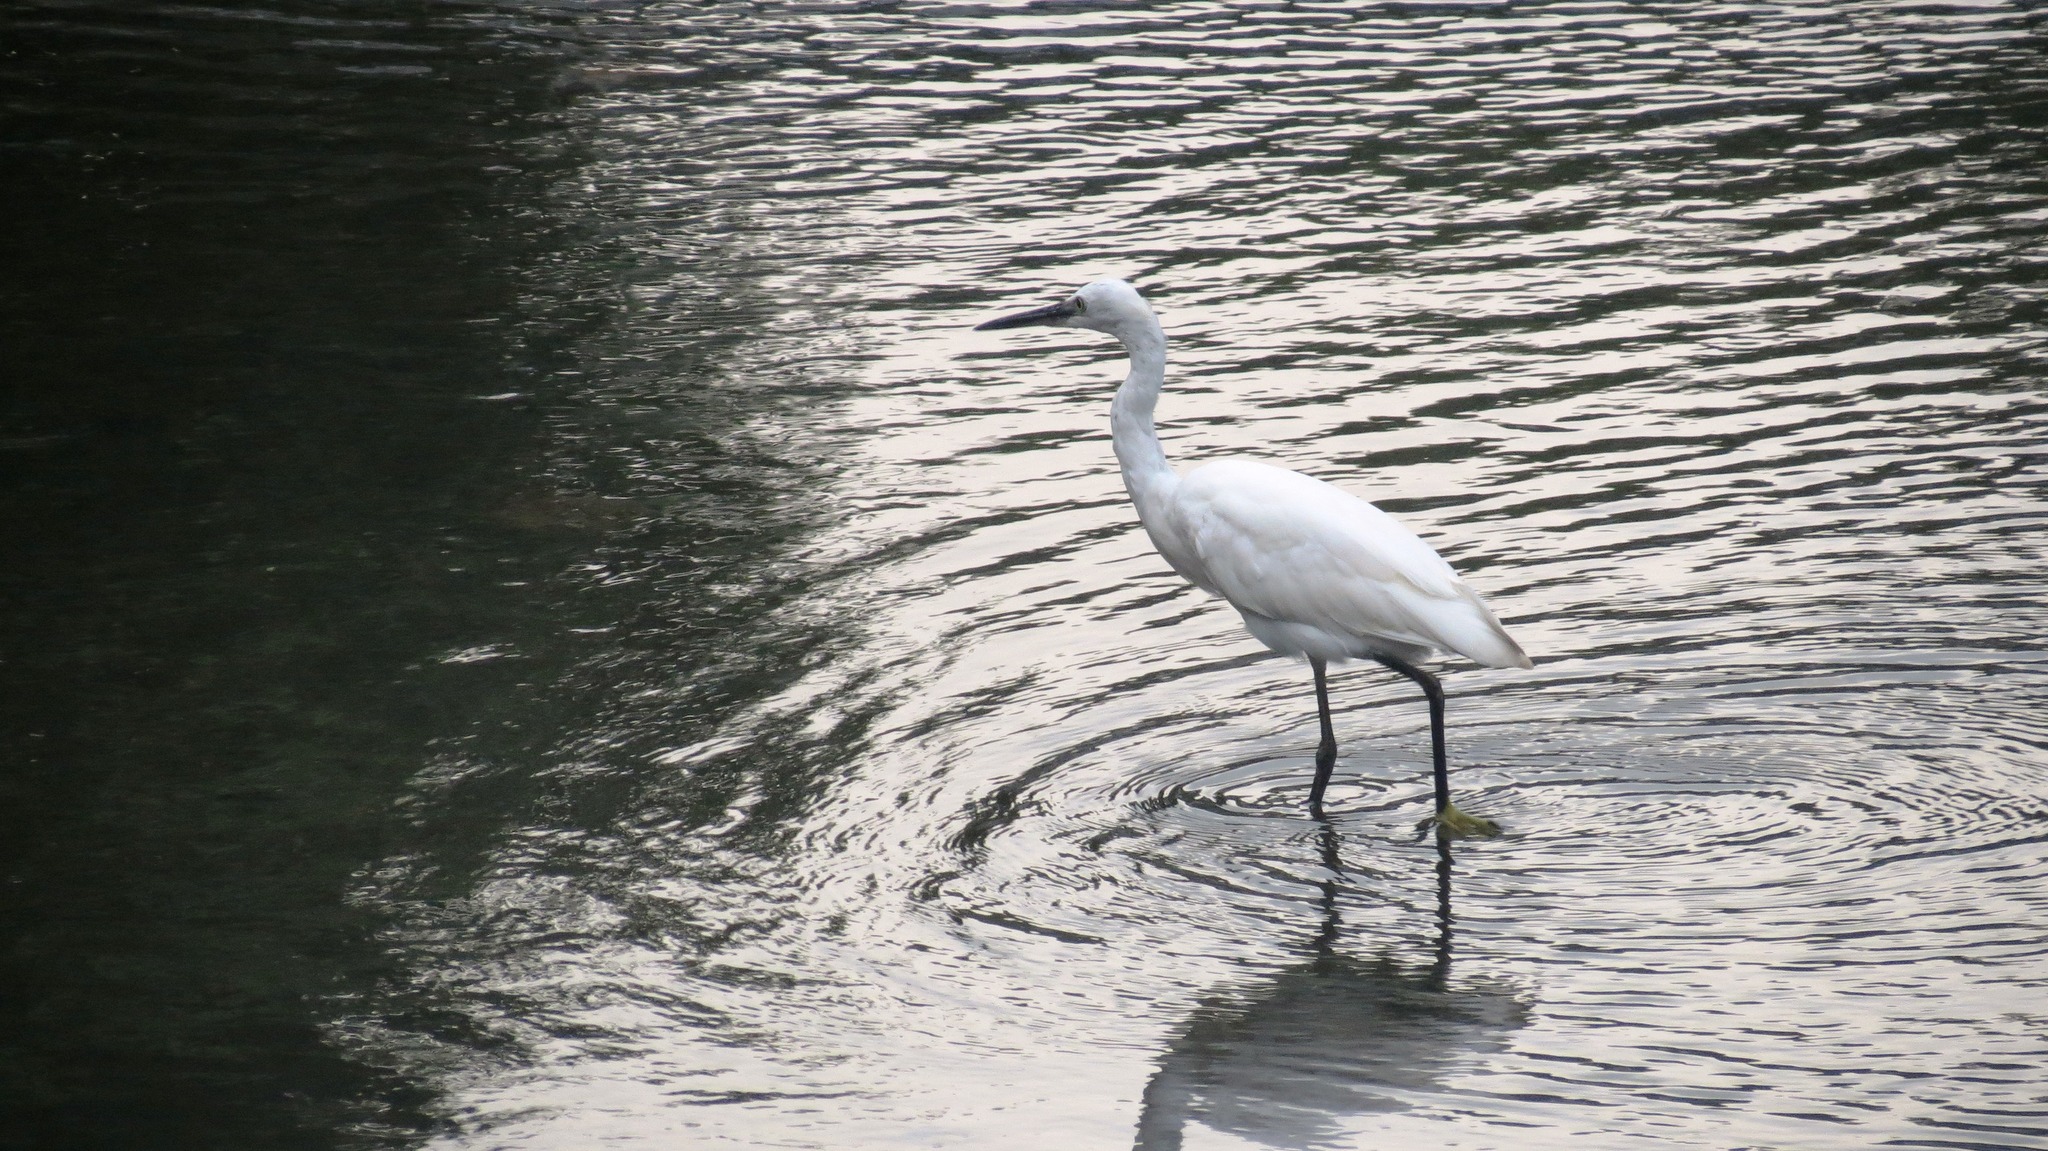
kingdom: Animalia
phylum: Chordata
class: Aves
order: Pelecaniformes
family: Ardeidae
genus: Egretta
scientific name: Egretta garzetta
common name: Little egret
